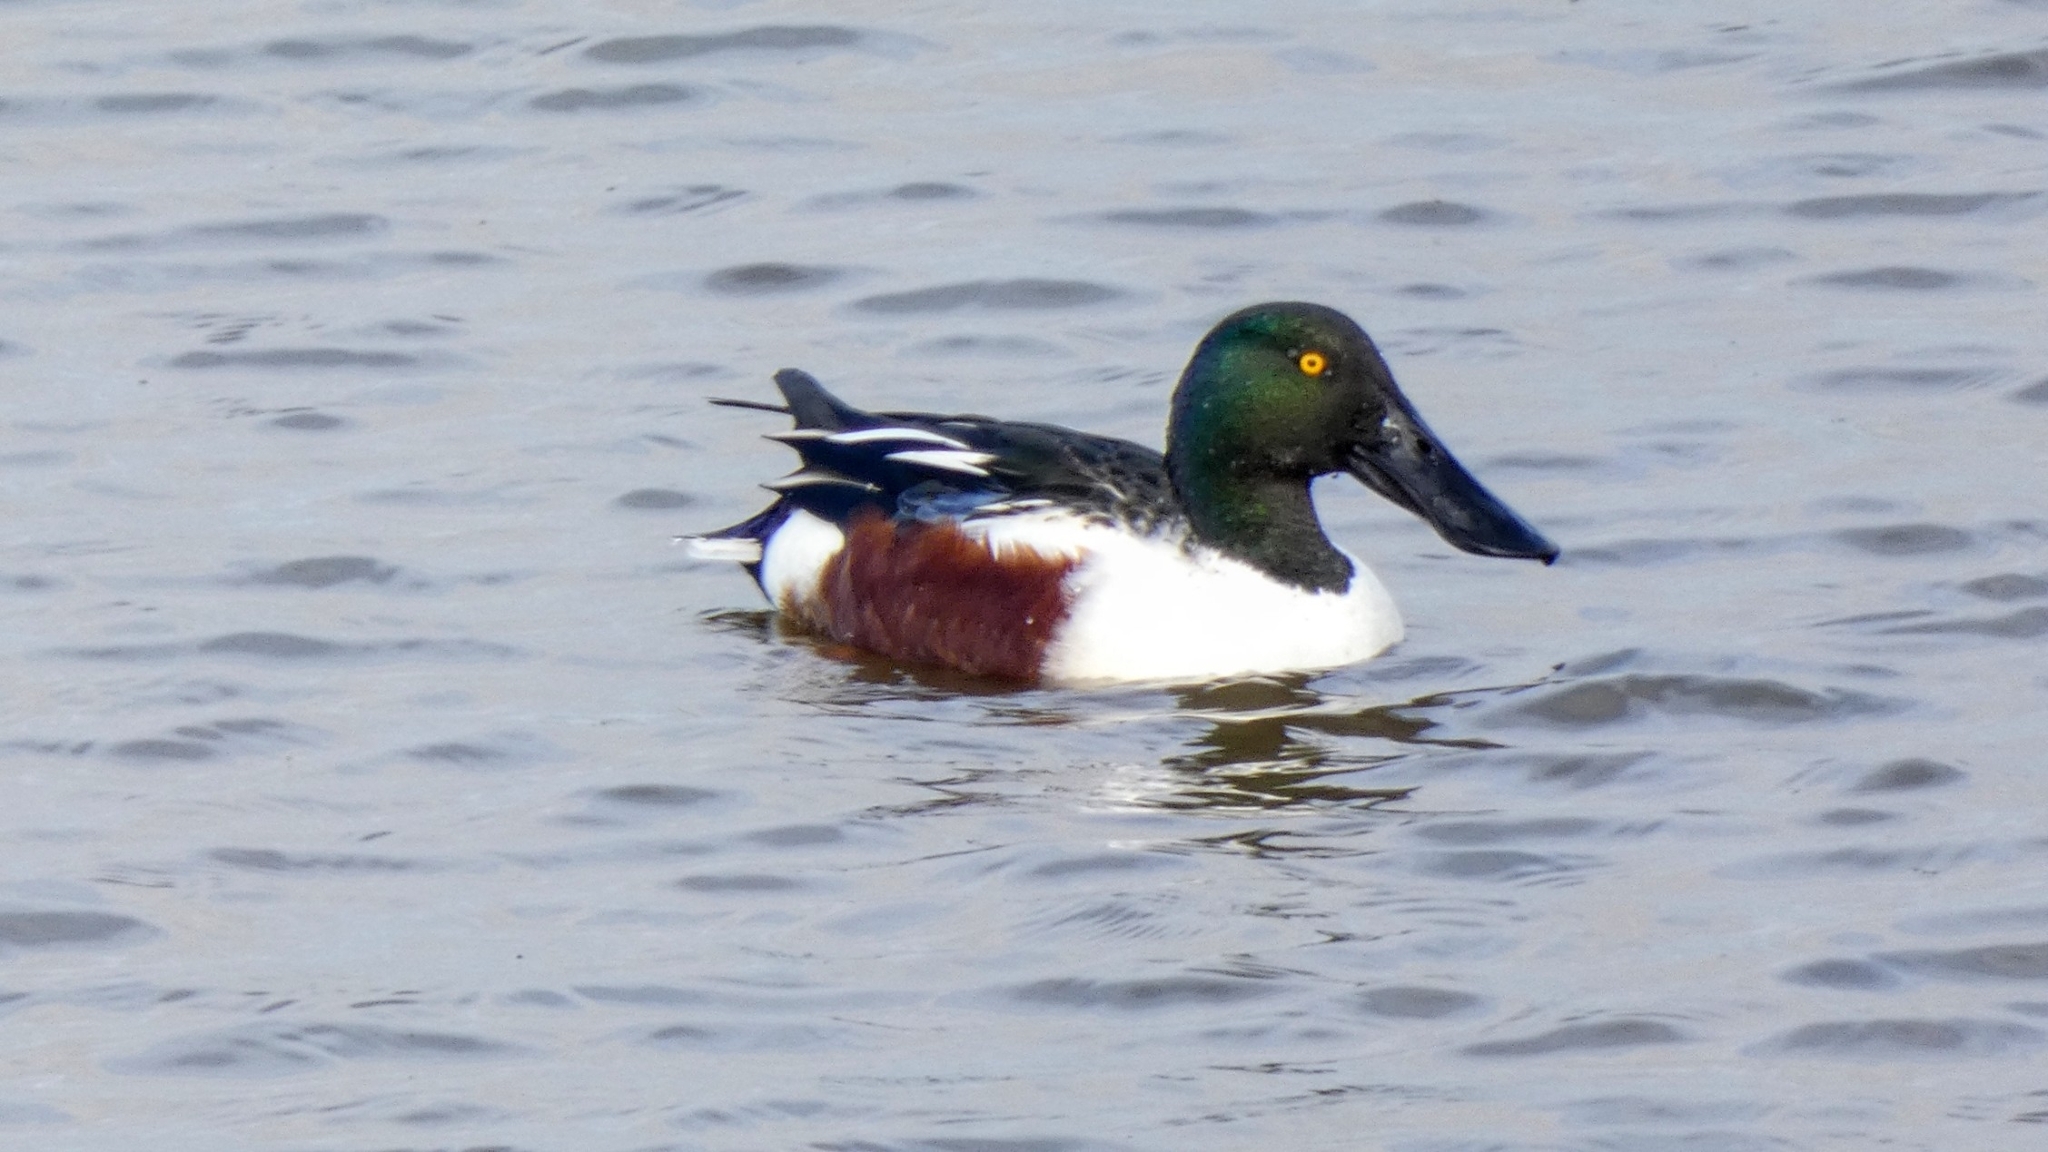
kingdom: Animalia
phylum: Chordata
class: Aves
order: Anseriformes
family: Anatidae
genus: Spatula
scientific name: Spatula clypeata
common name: Northern shoveler
